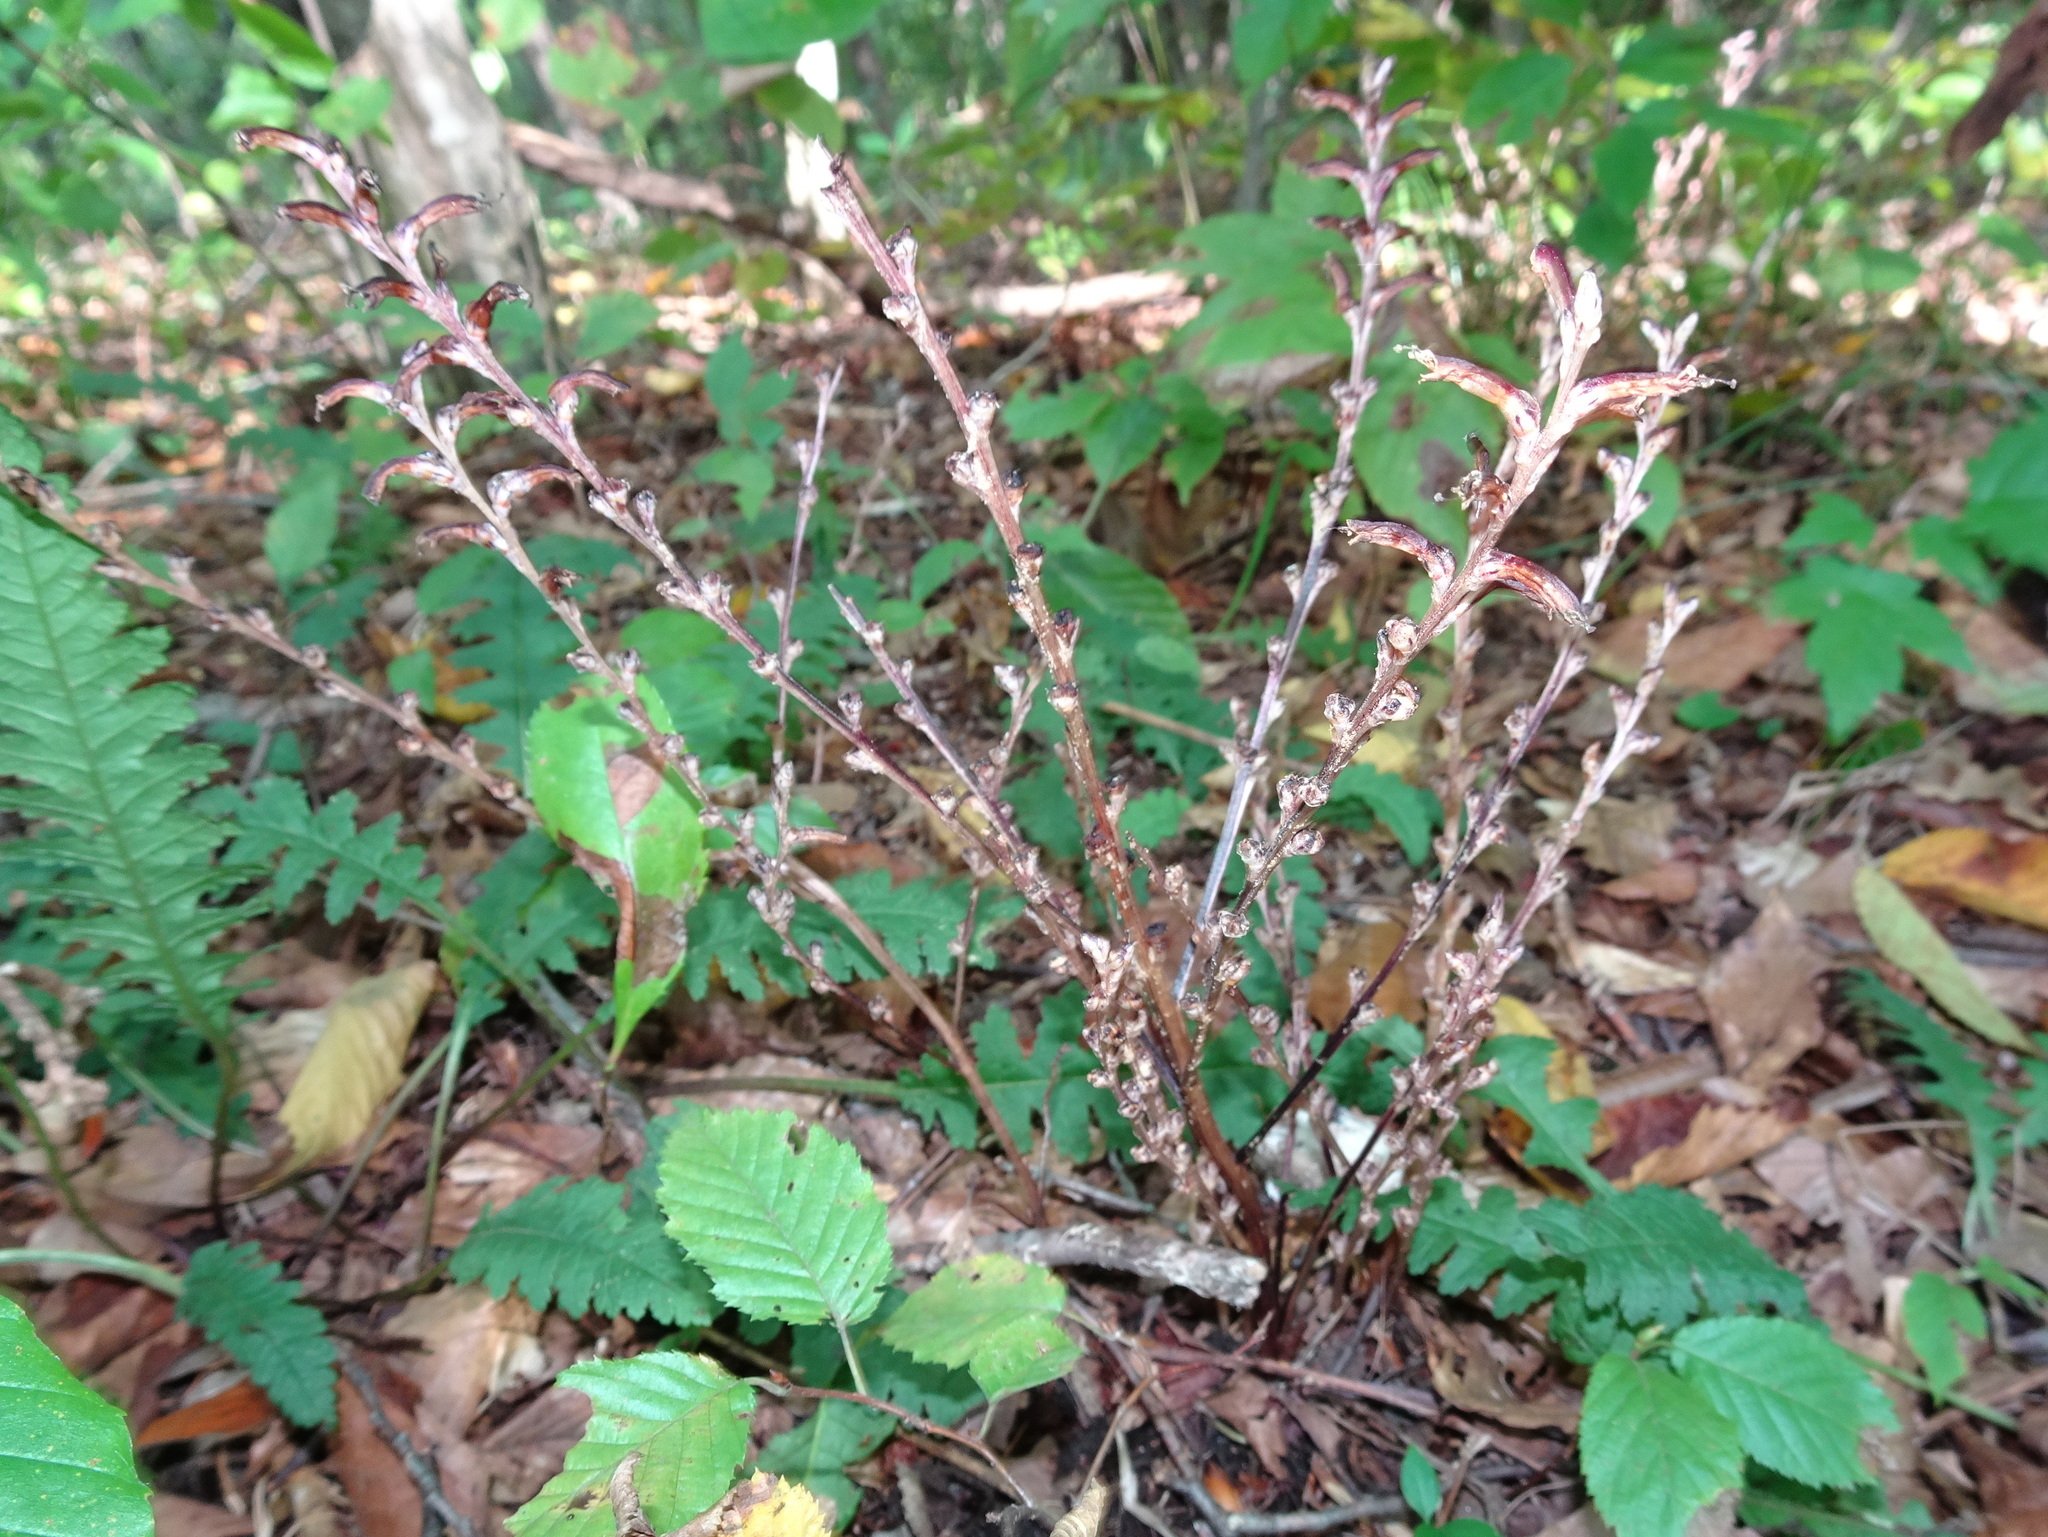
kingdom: Plantae
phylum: Tracheophyta
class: Magnoliopsida
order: Lamiales
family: Orobanchaceae
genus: Epifagus
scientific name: Epifagus virginiana
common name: Beechdrops
